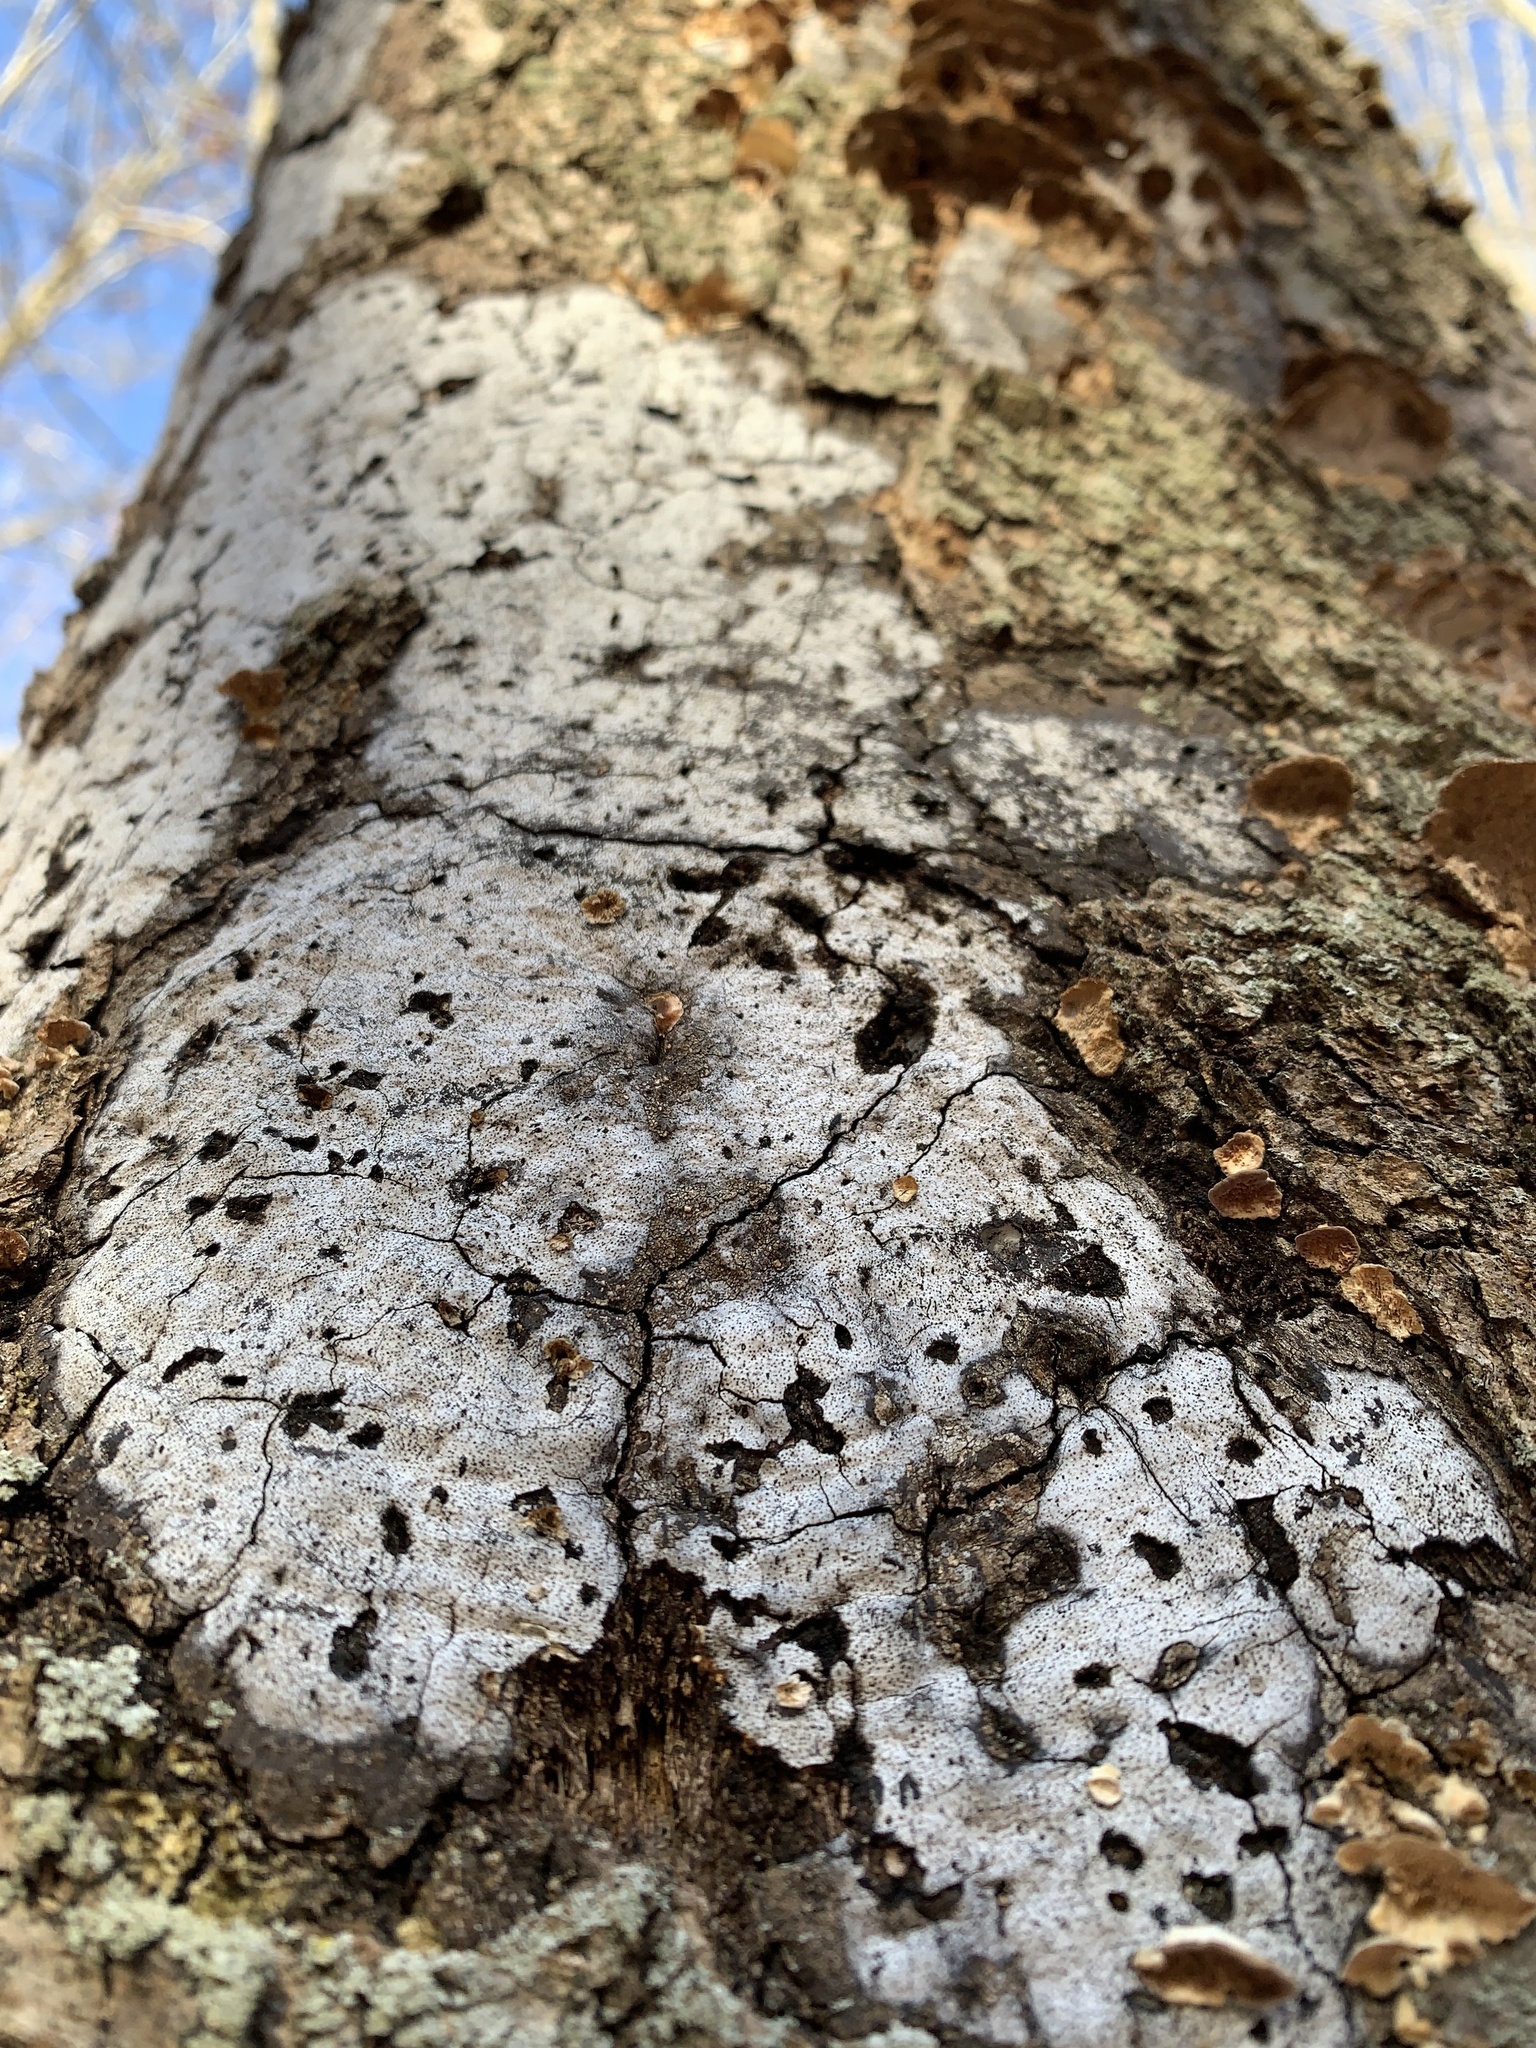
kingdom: Fungi
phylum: Ascomycota
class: Sordariomycetes
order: Xylariales
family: Graphostromataceae
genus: Biscogniauxia
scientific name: Biscogniauxia atropunctata
